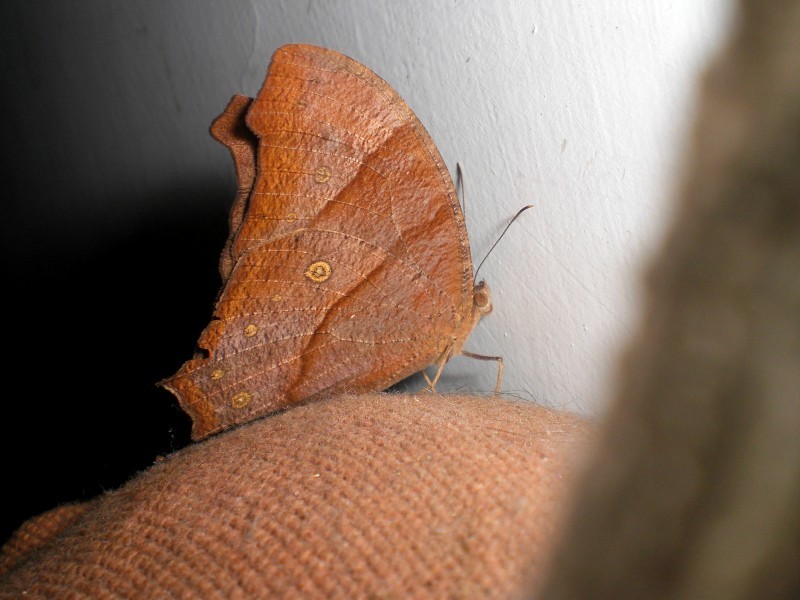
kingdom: Animalia
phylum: Arthropoda
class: Insecta
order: Lepidoptera
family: Nymphalidae
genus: Melanitis
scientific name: Melanitis leda
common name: Twilight brown
